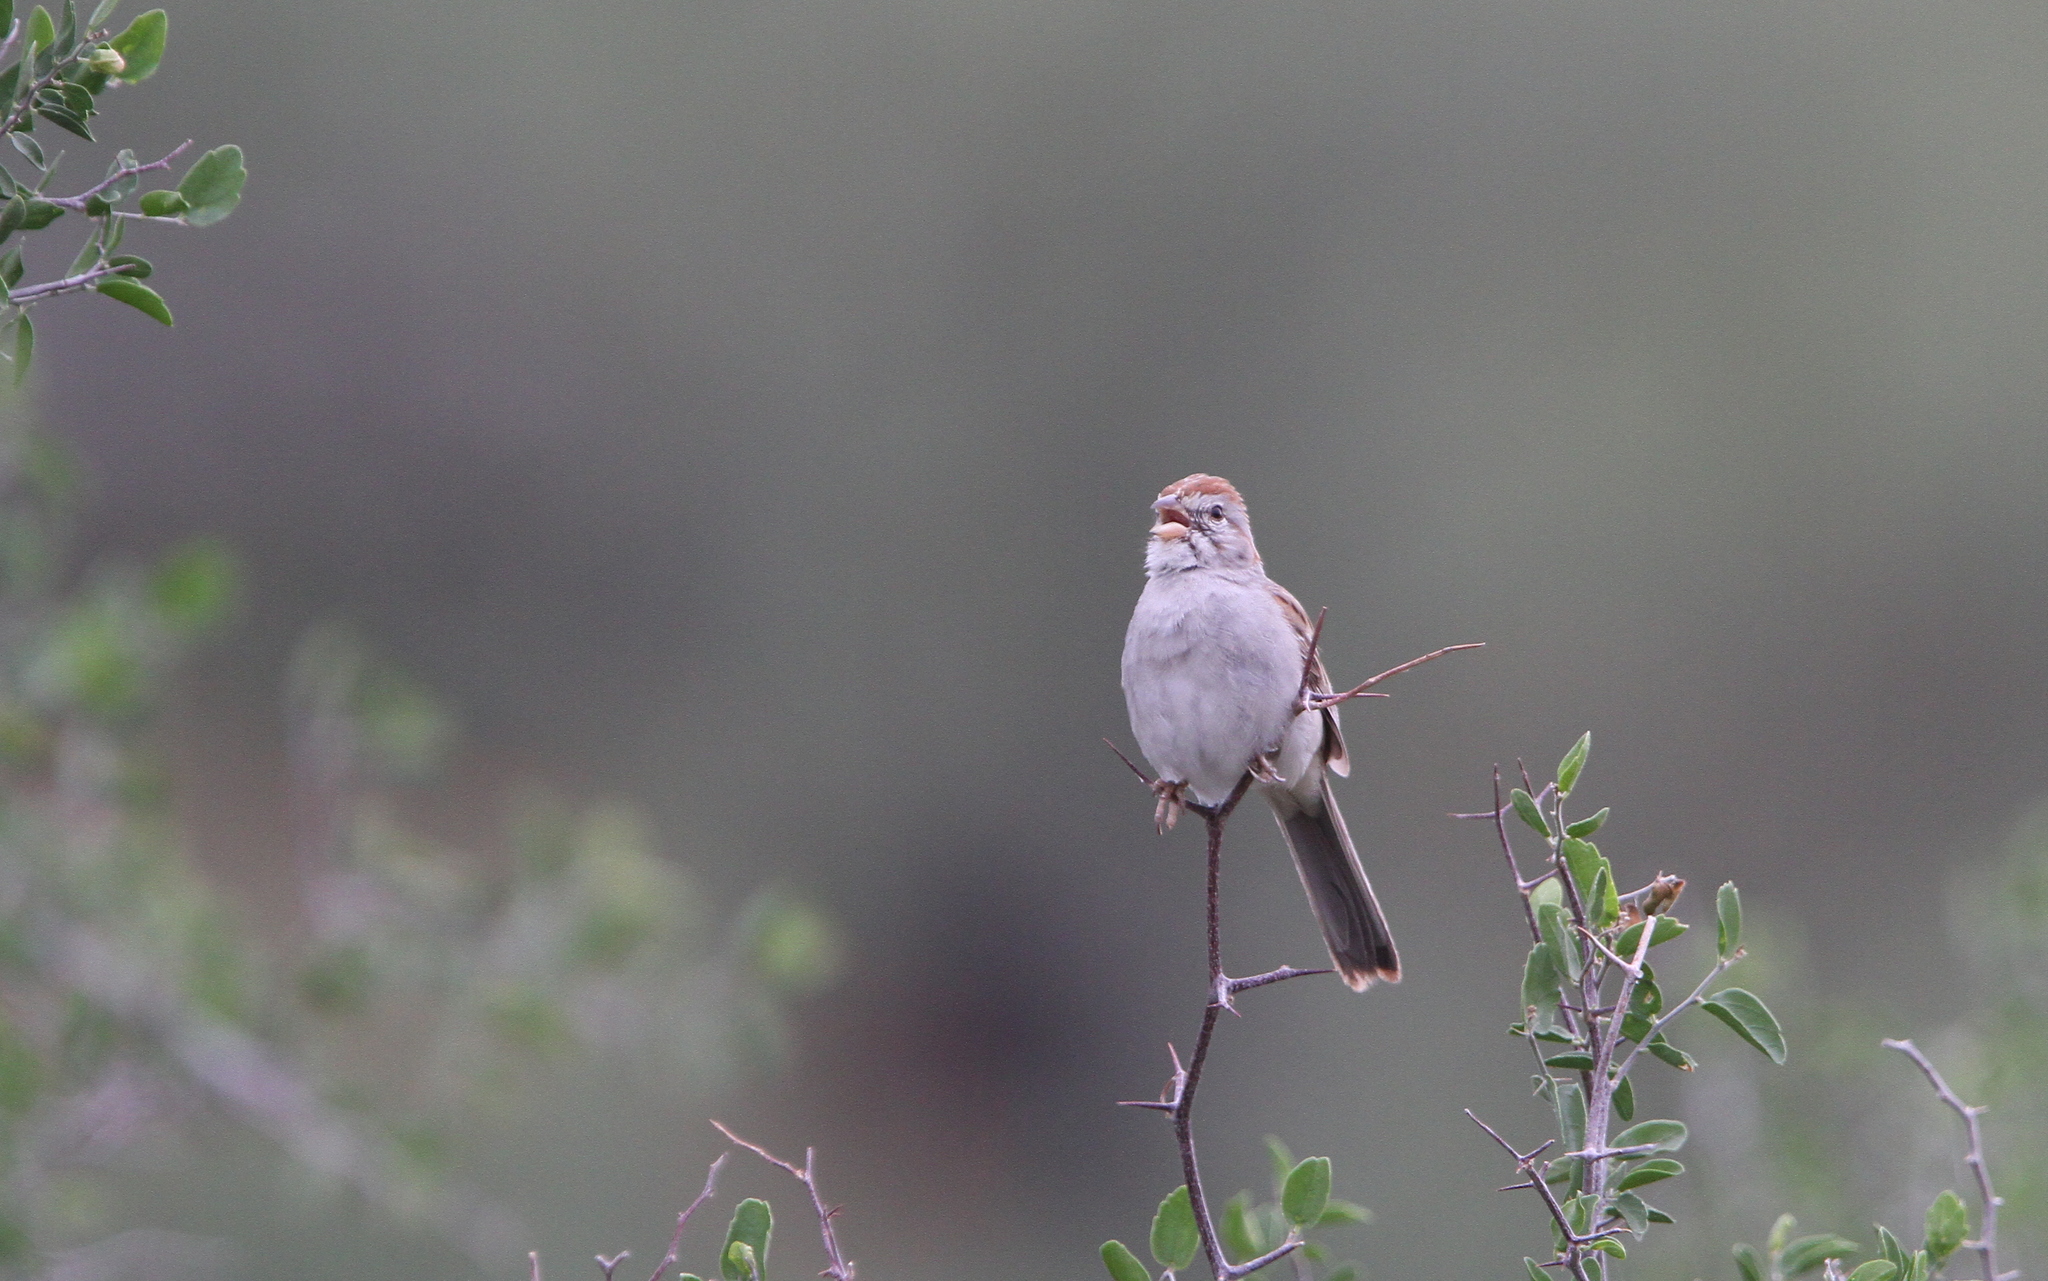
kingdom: Animalia
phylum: Chordata
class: Aves
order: Passeriformes
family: Passerellidae
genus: Peucaea
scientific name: Peucaea carpalis
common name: Rufous-winged sparrow
